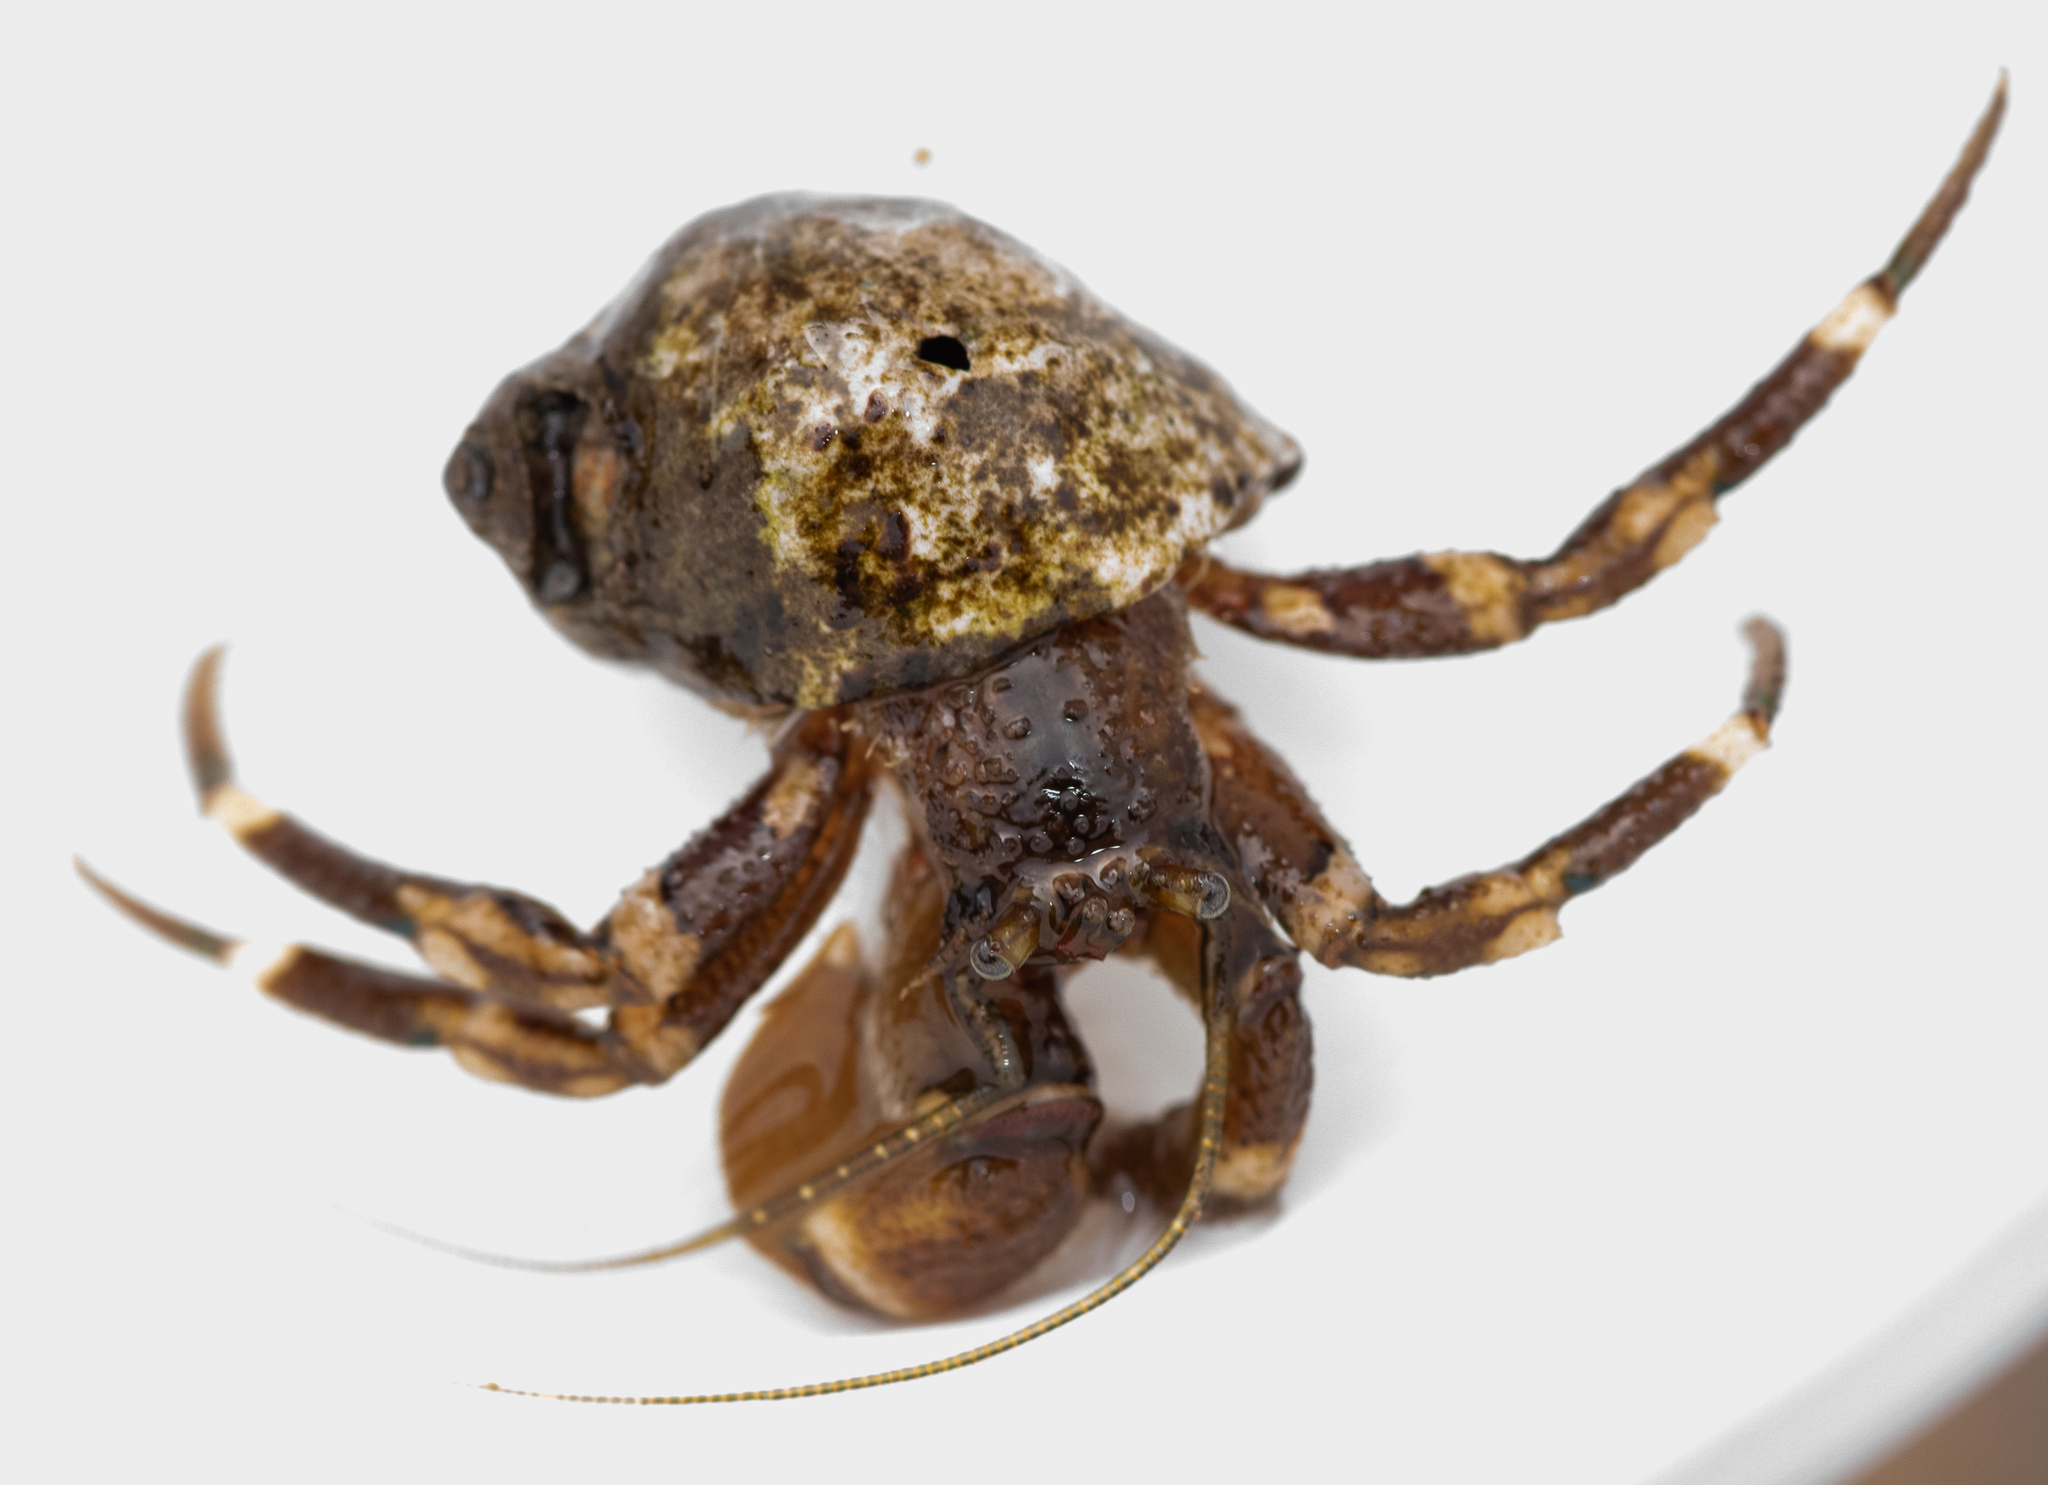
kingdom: Animalia
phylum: Arthropoda
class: Malacostraca
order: Decapoda
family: Paguridae
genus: Pagurus
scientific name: Pagurus hirsutiusculus
